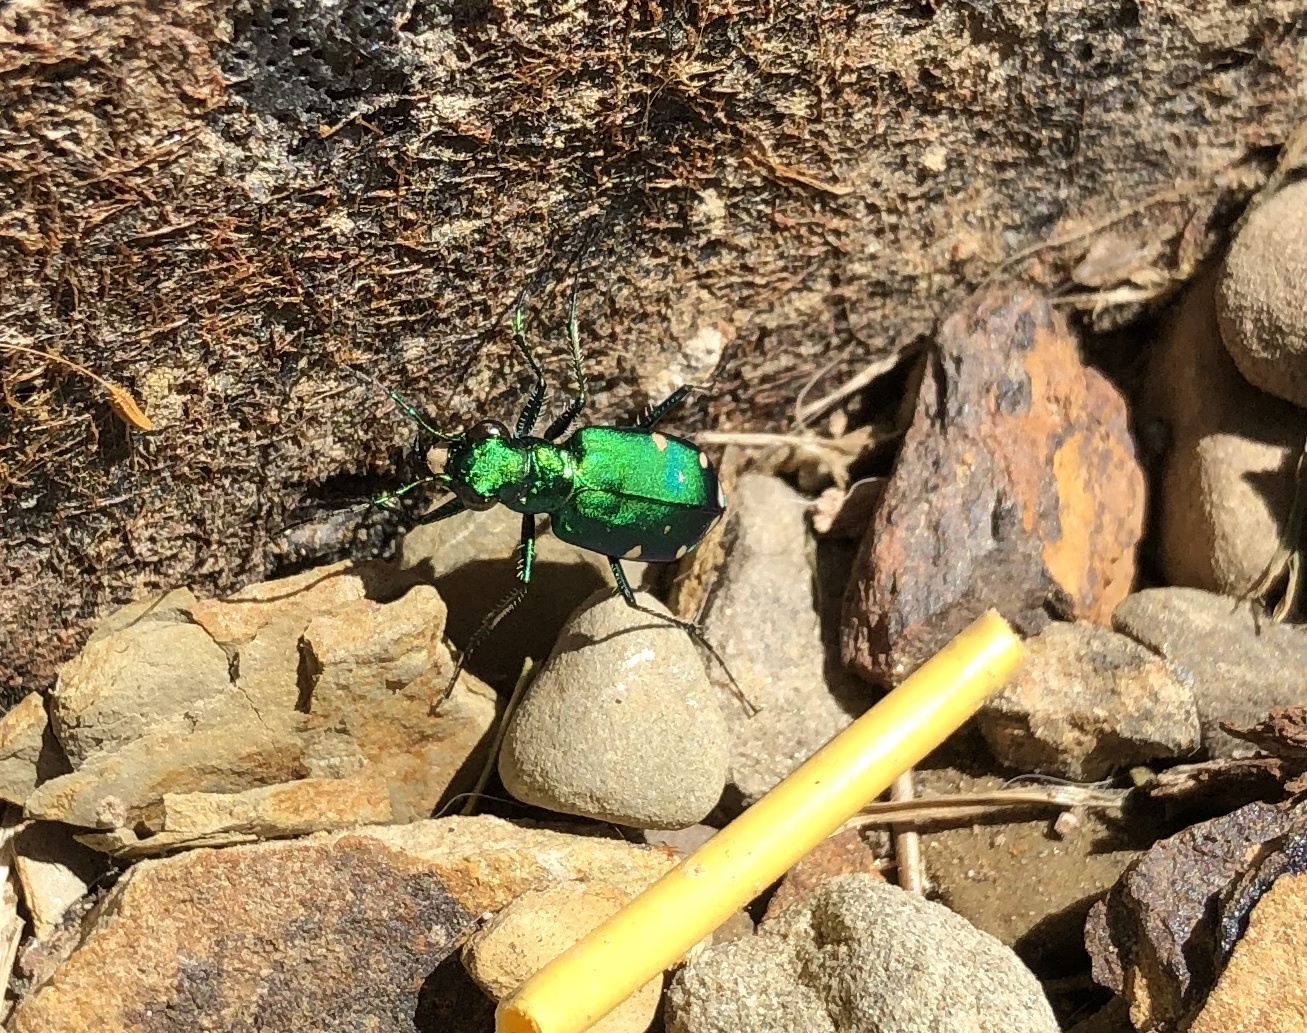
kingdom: Animalia
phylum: Arthropoda
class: Insecta
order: Coleoptera
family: Carabidae
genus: Cicindela
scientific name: Cicindela sexguttata
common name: Six-spotted tiger beetle
